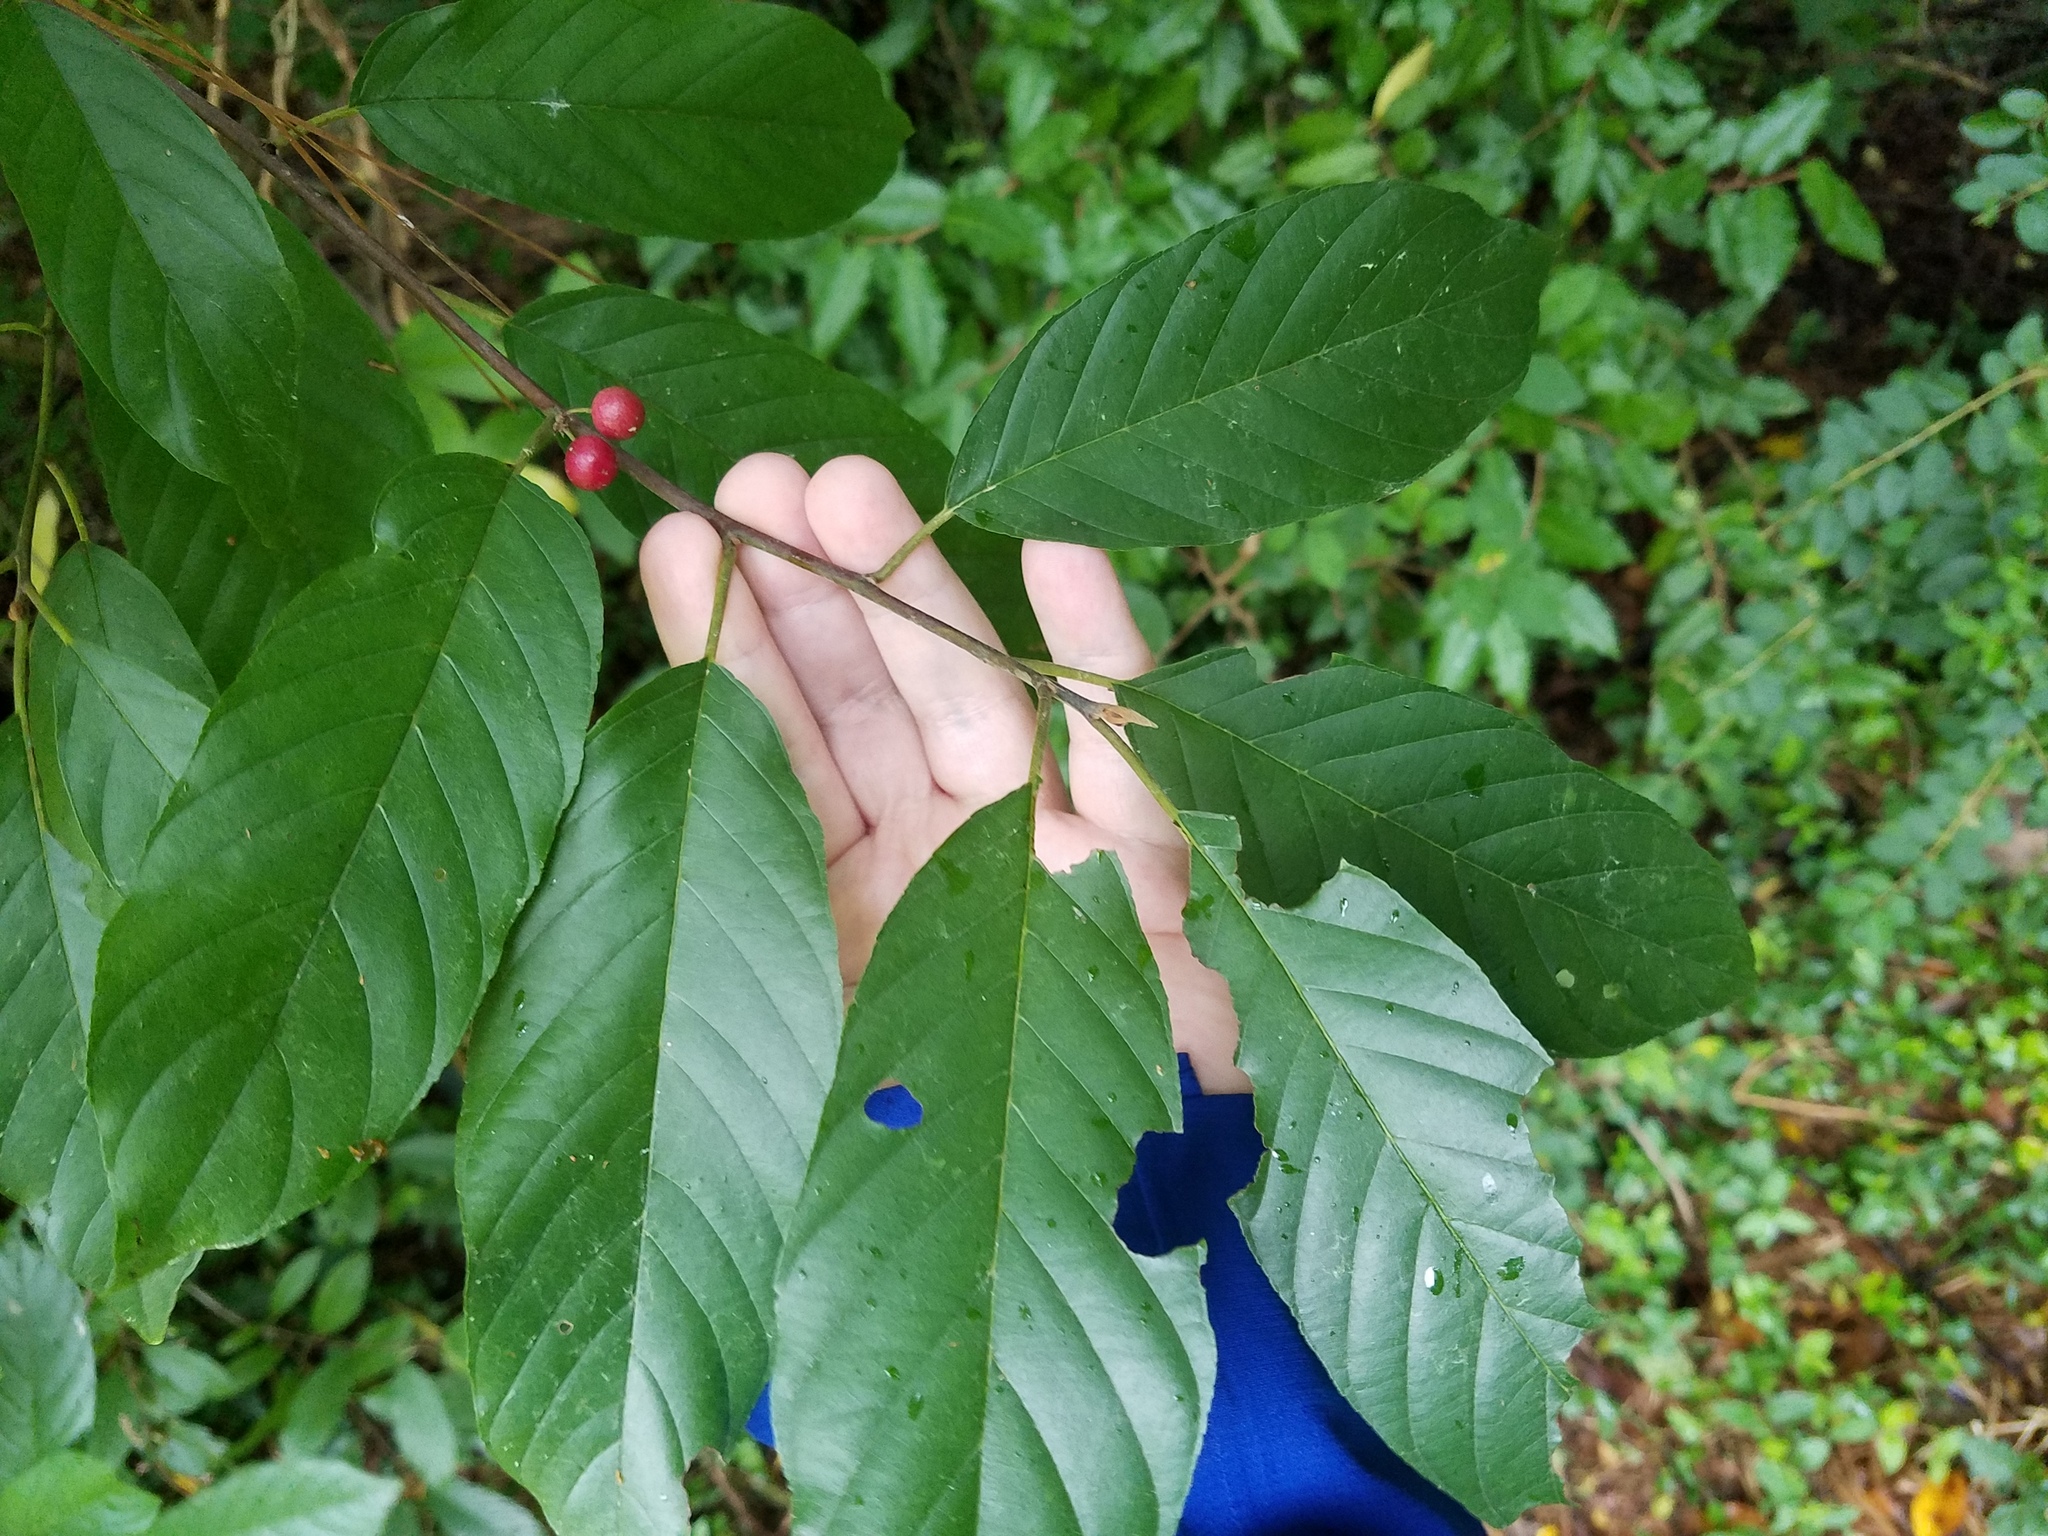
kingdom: Plantae
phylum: Tracheophyta
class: Magnoliopsida
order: Rosales
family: Rhamnaceae
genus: Frangula
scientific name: Frangula caroliniana
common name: Carolina buckthorn
